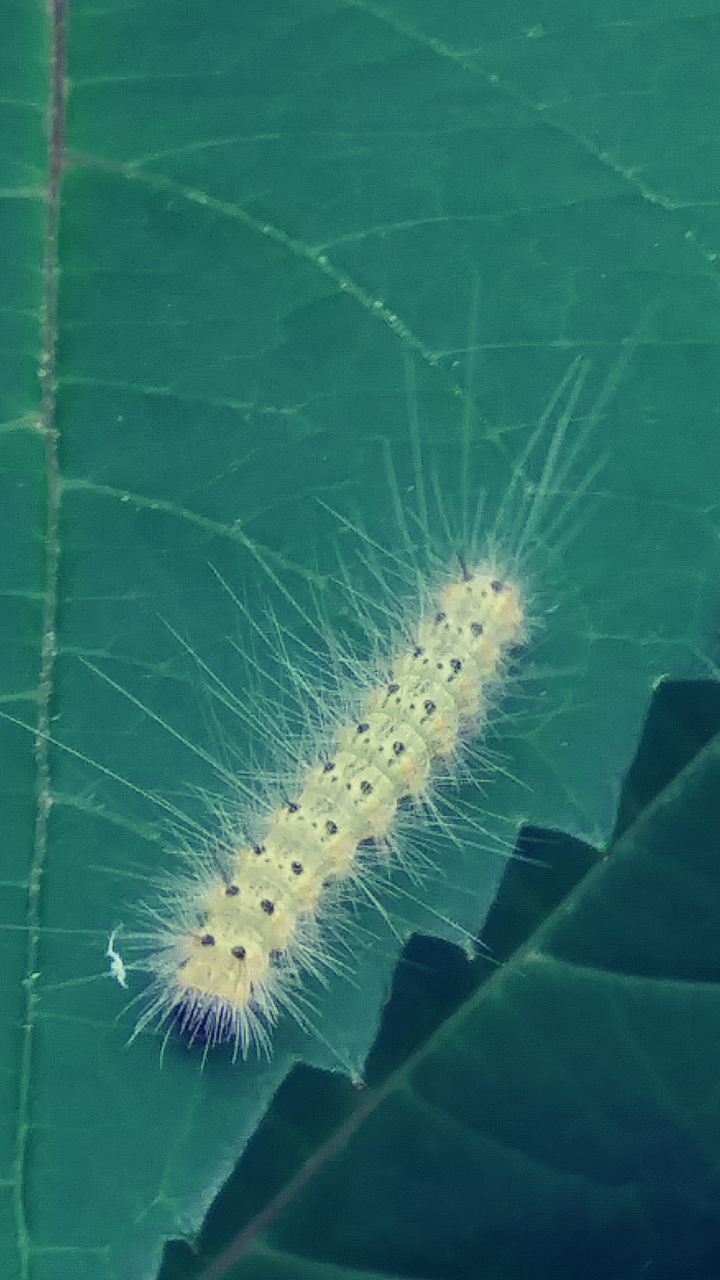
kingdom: Animalia
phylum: Arthropoda
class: Insecta
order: Lepidoptera
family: Erebidae
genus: Hyphantria
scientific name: Hyphantria cunea
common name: American white moth
